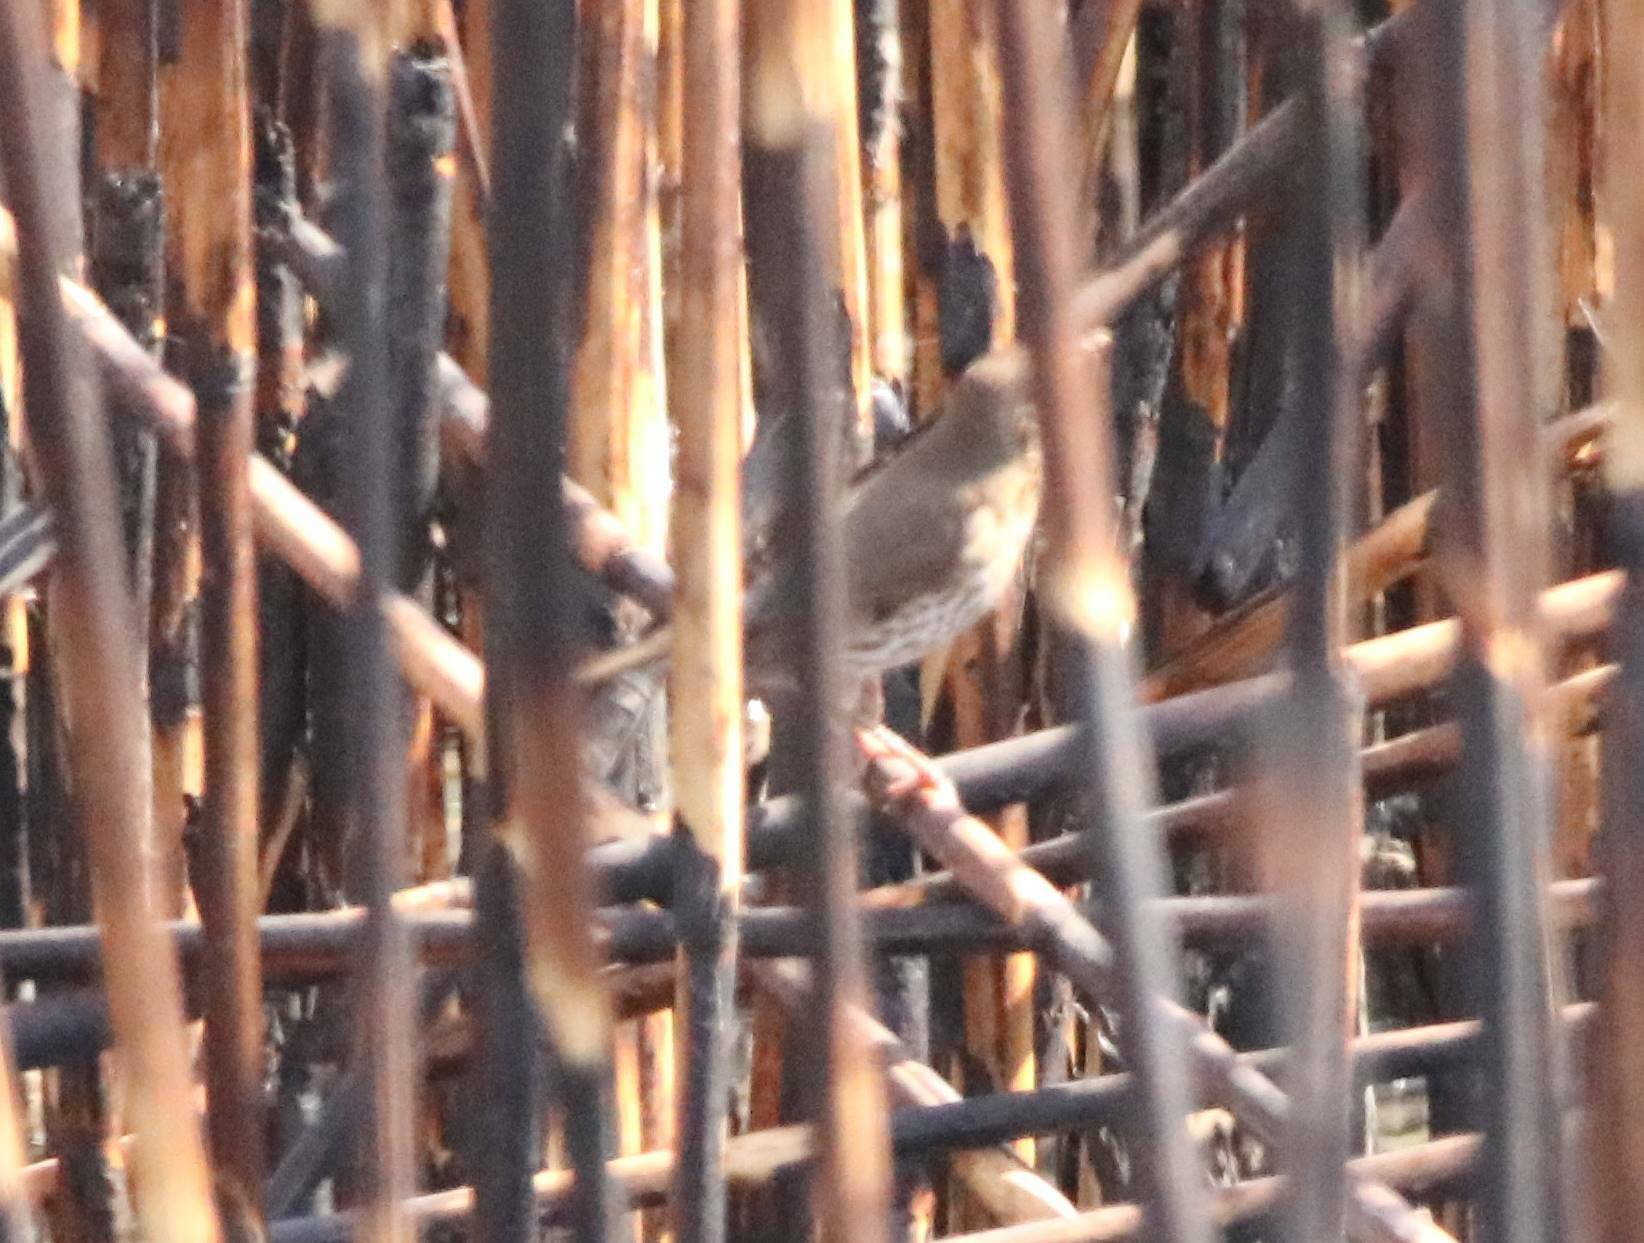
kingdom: Animalia
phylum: Chordata
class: Aves
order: Passeriformes
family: Turdidae
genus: Turdus
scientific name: Turdus philomelos
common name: Song thrush
